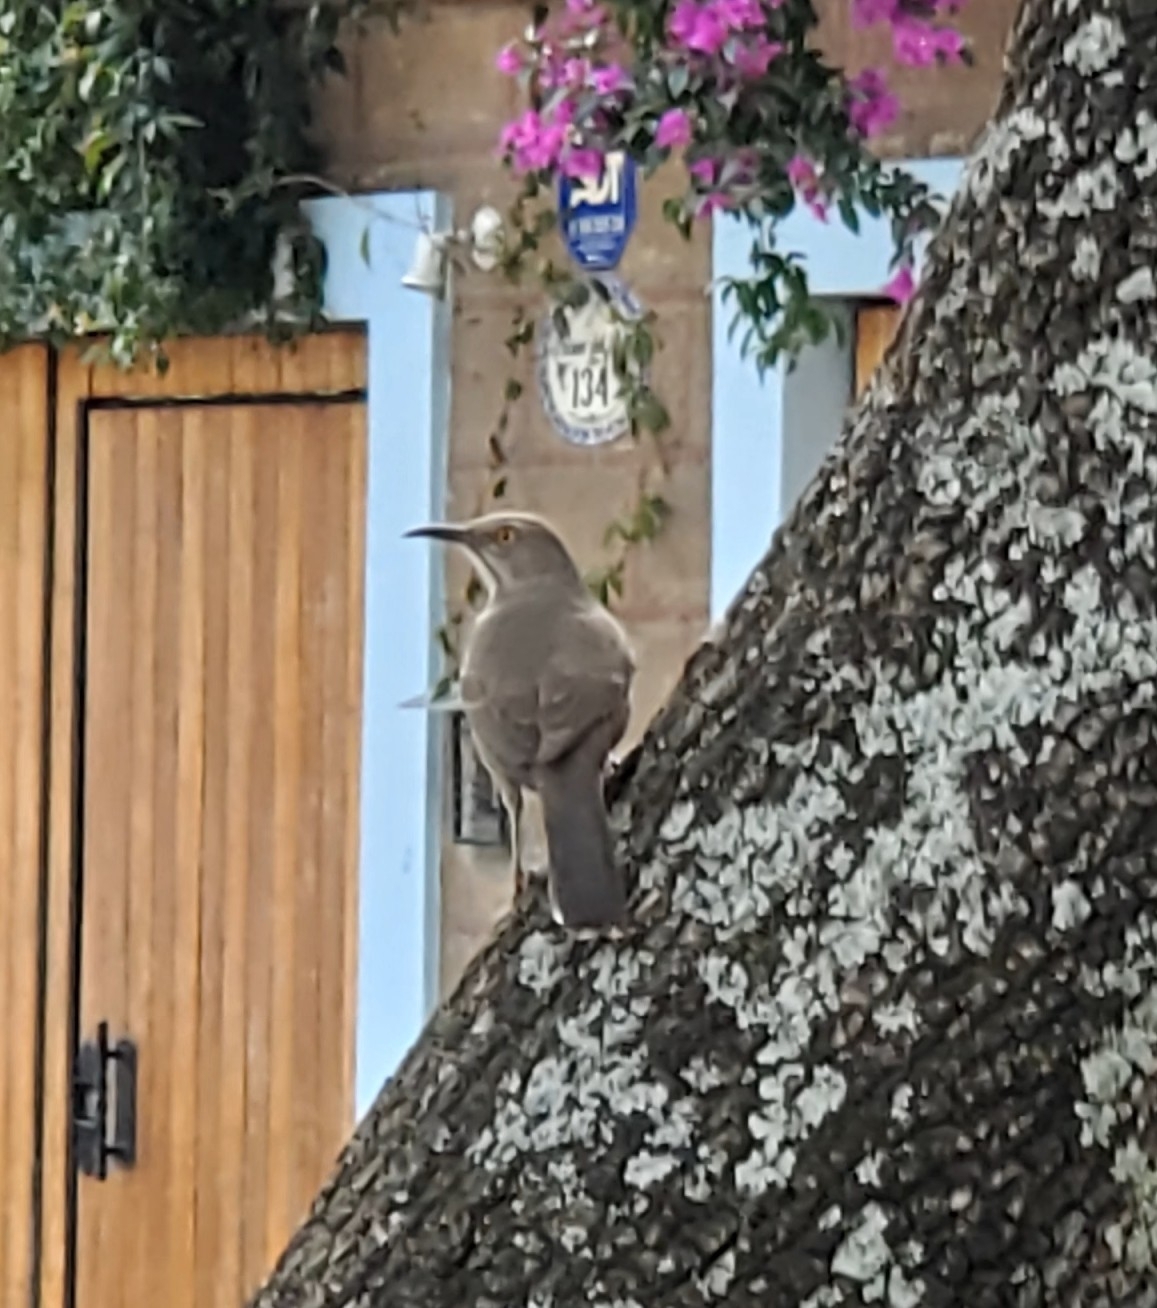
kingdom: Animalia
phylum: Chordata
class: Aves
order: Passeriformes
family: Mimidae
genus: Toxostoma
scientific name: Toxostoma curvirostre
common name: Curve-billed thrasher
